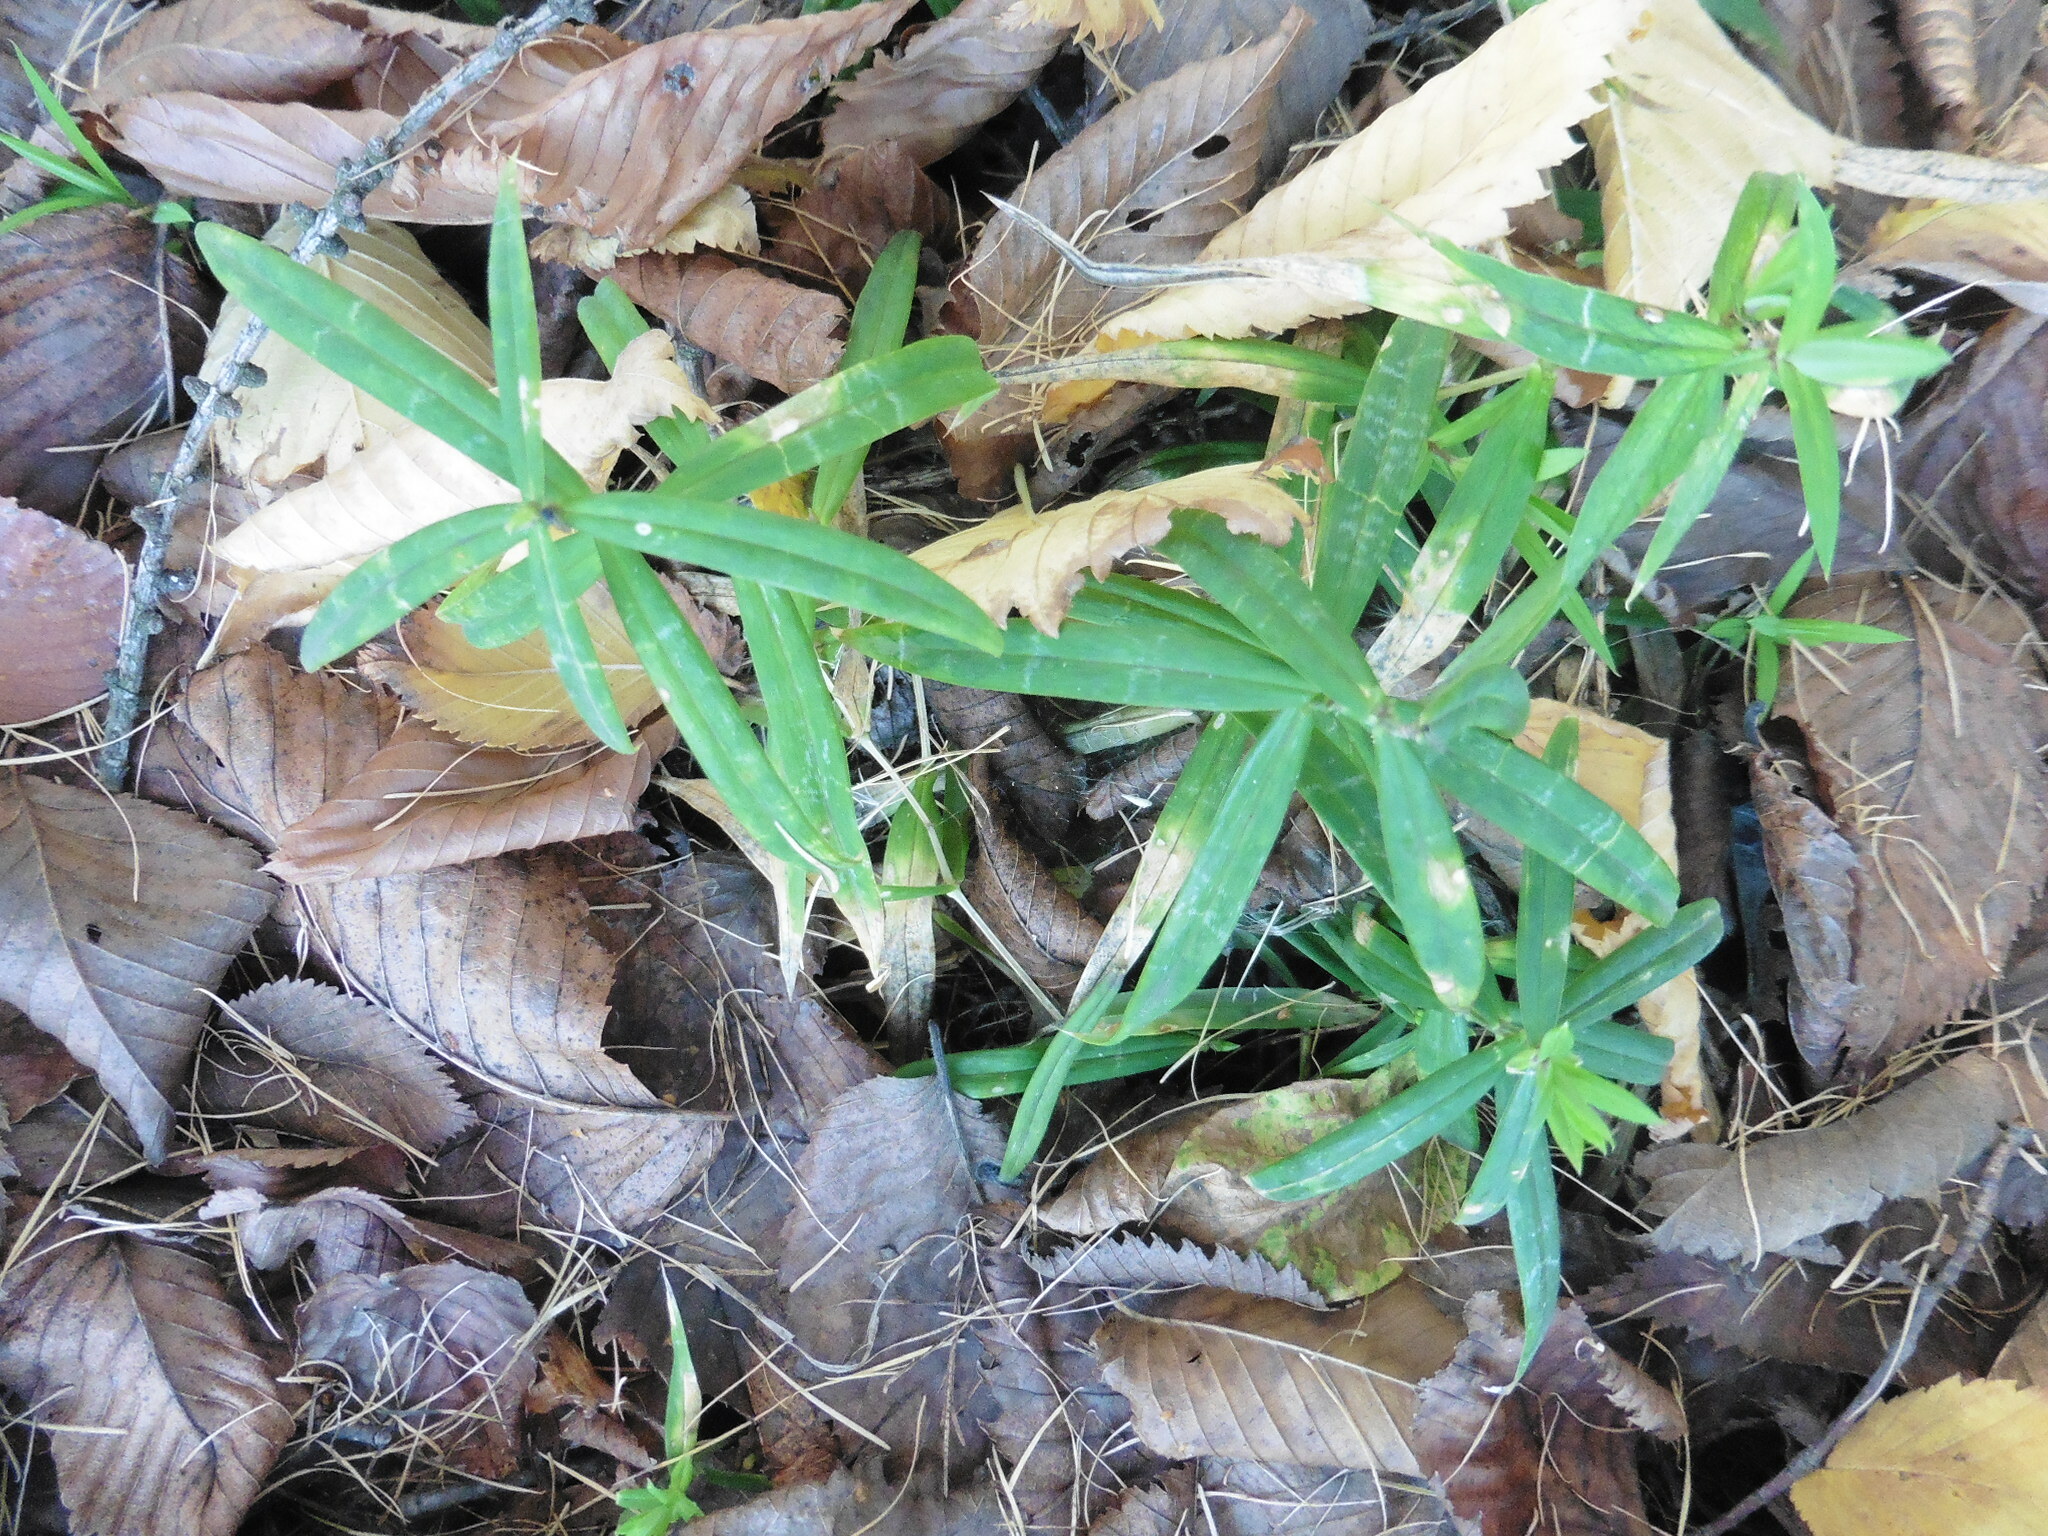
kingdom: Plantae
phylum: Tracheophyta
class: Magnoliopsida
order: Caryophyllales
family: Caryophyllaceae
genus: Rabelera
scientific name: Rabelera holostea
